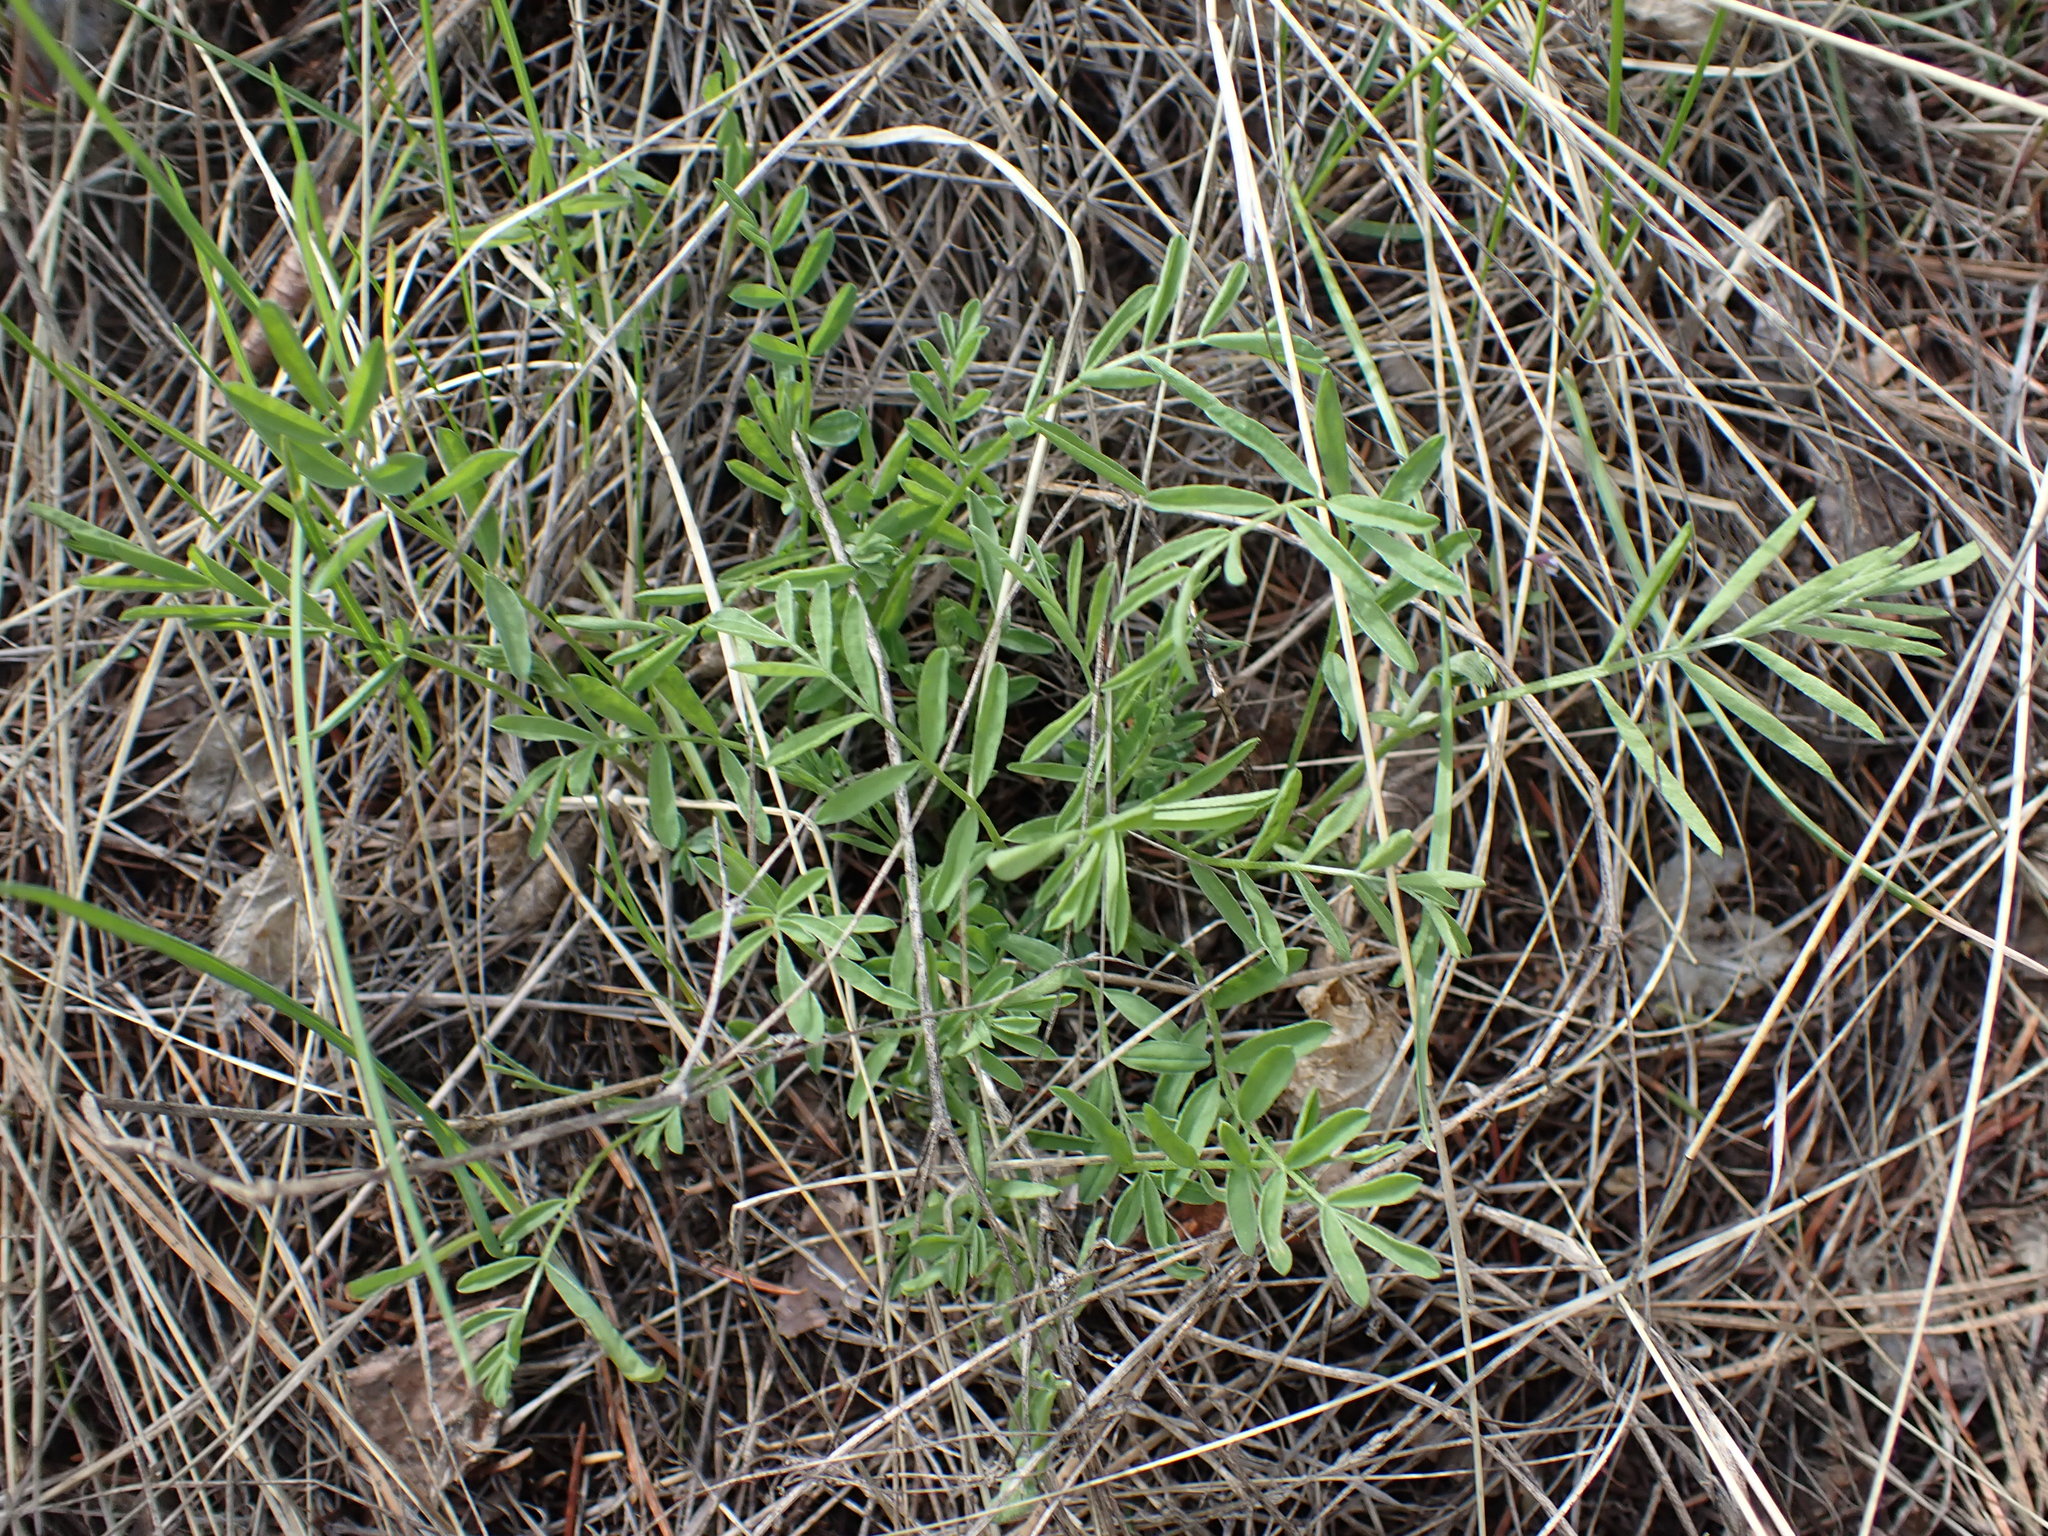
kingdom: Plantae
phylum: Tracheophyta
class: Magnoliopsida
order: Fabales
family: Fabaceae
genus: Astragalus
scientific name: Astragalus miser
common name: Timber milkvetch
